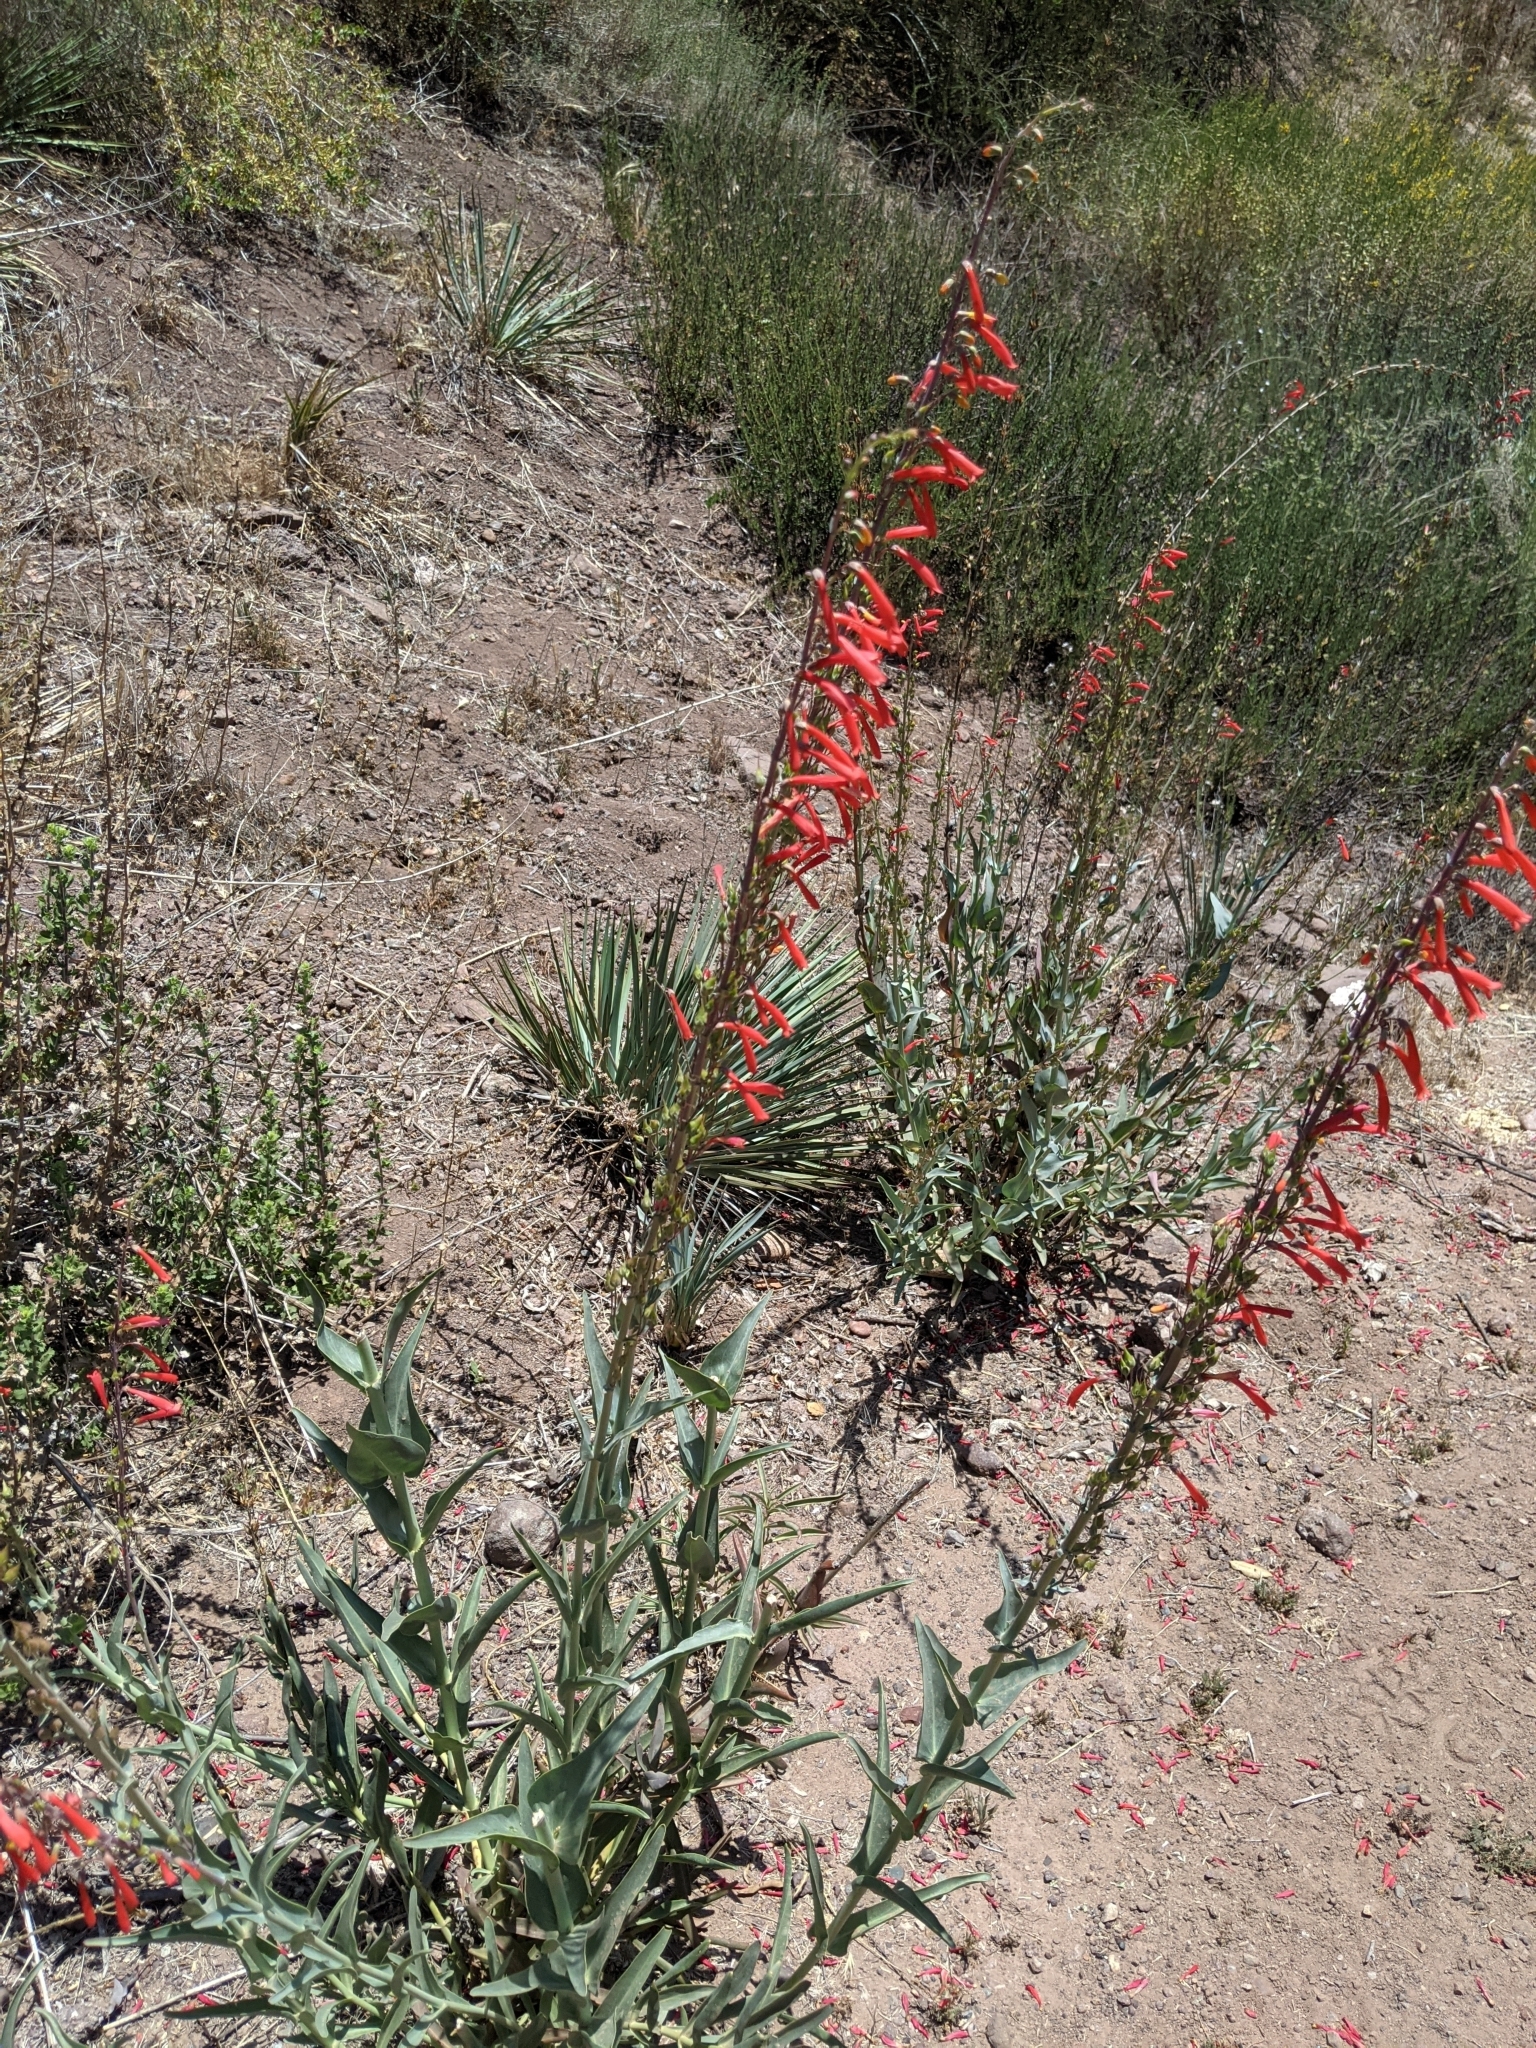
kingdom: Plantae
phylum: Tracheophyta
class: Magnoliopsida
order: Lamiales
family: Plantaginaceae
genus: Penstemon
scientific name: Penstemon centranthifolius
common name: Scarlet bugler
